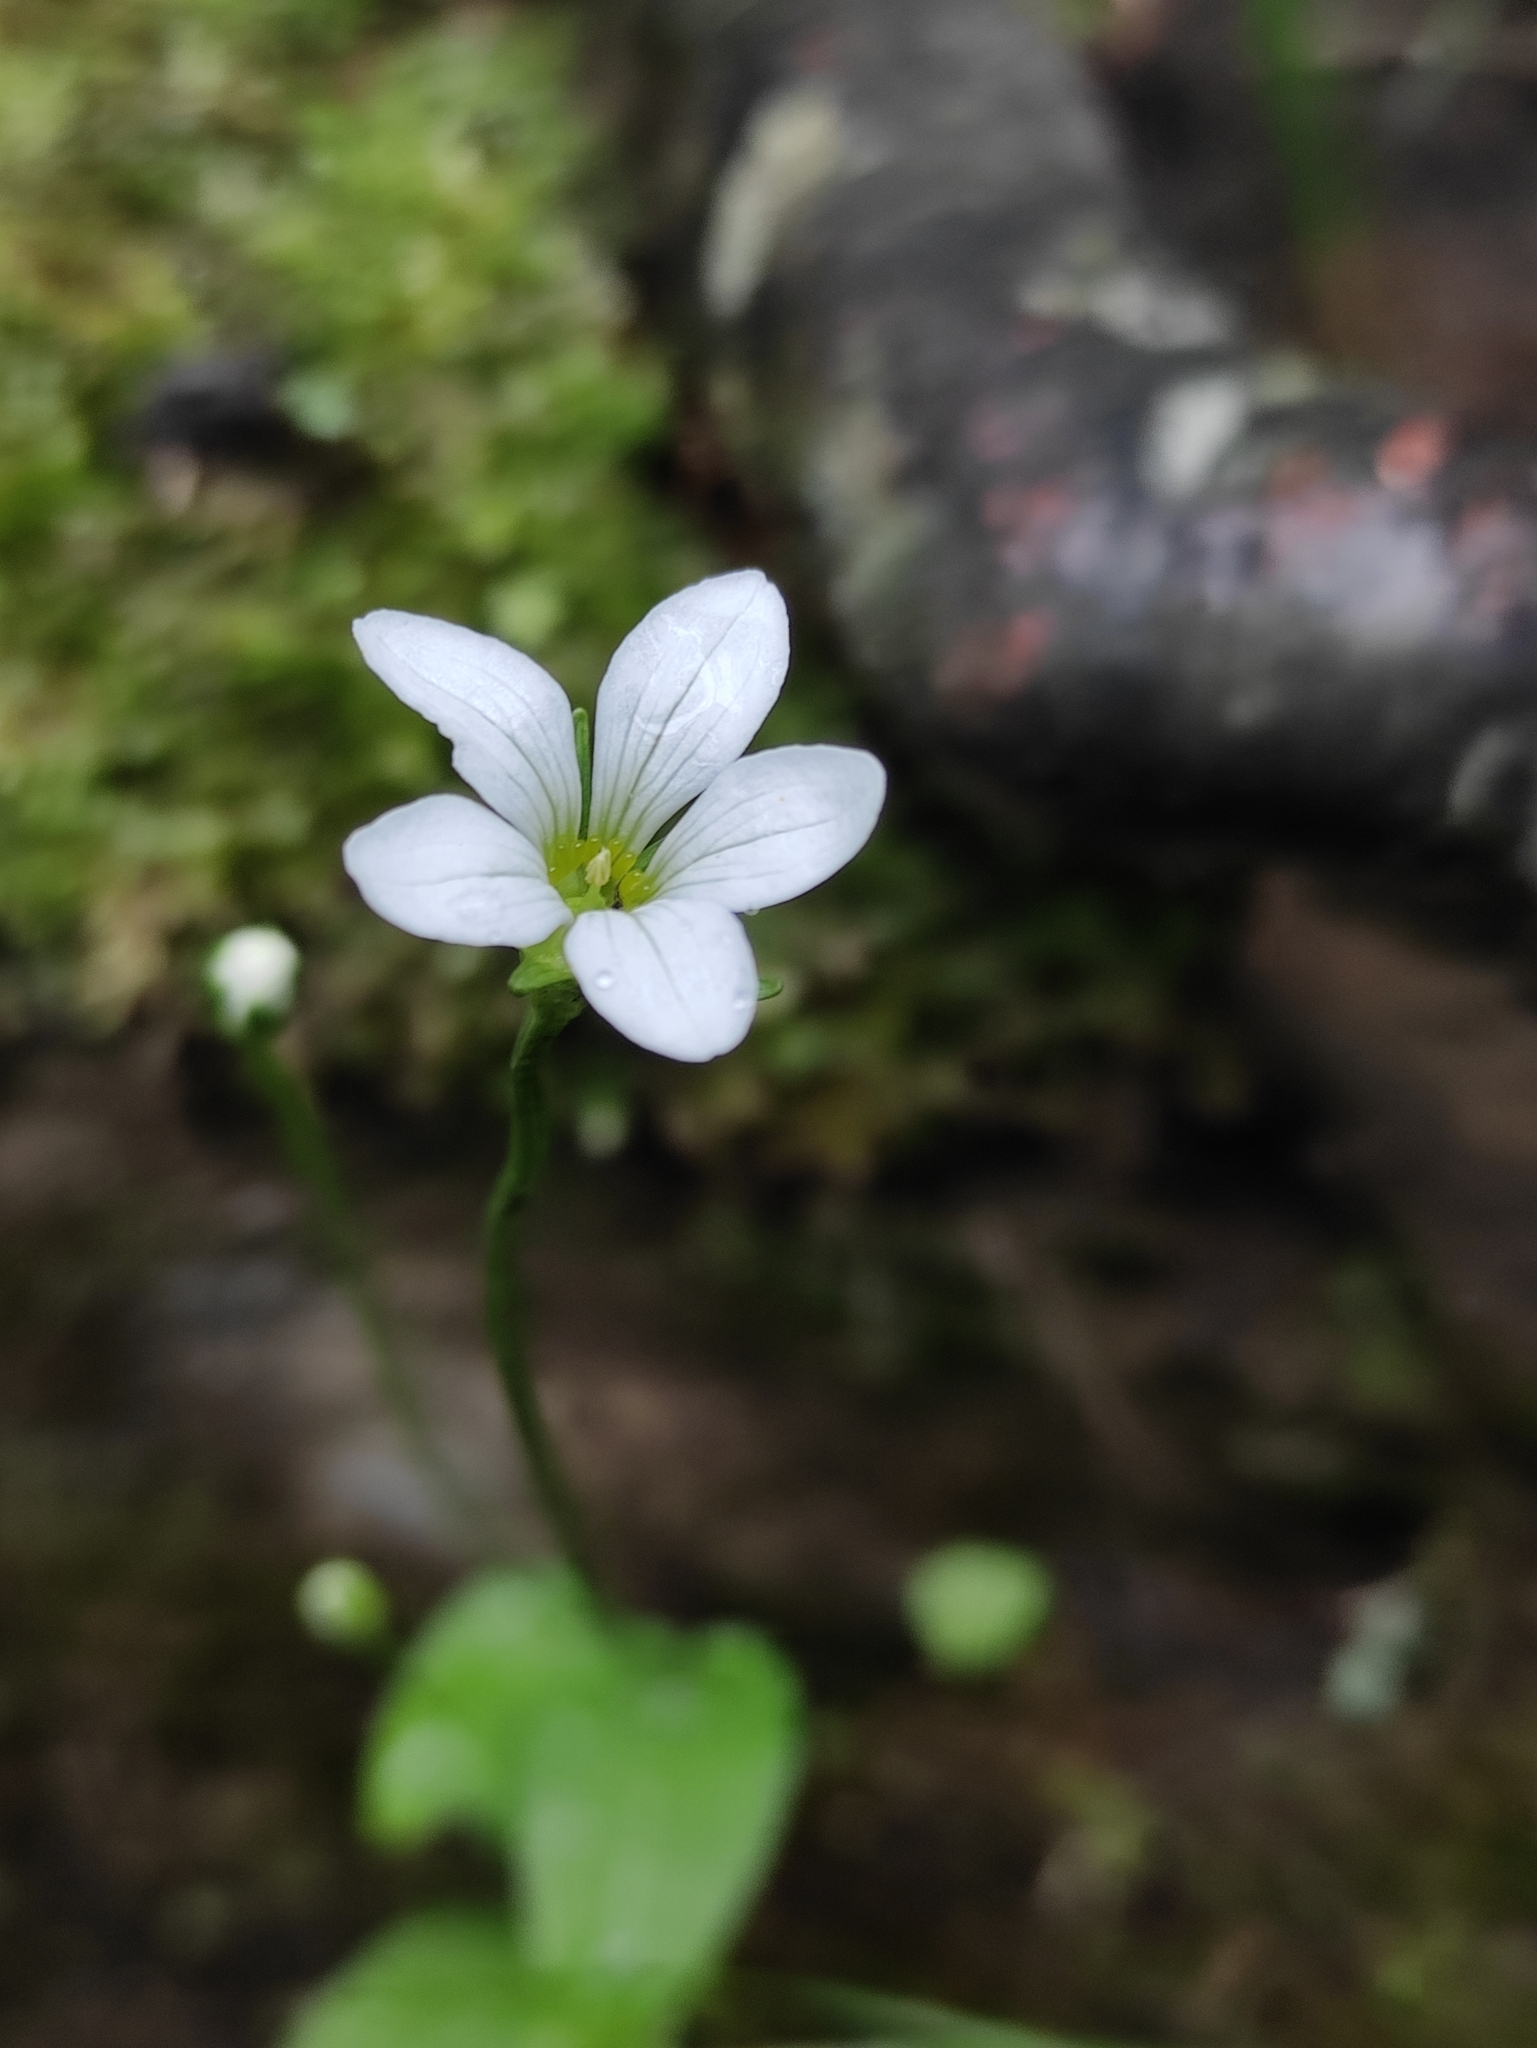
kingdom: Plantae
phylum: Tracheophyta
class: Magnoliopsida
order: Celastrales
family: Parnassiaceae
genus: Parnassia
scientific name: Parnassia laxmannii
